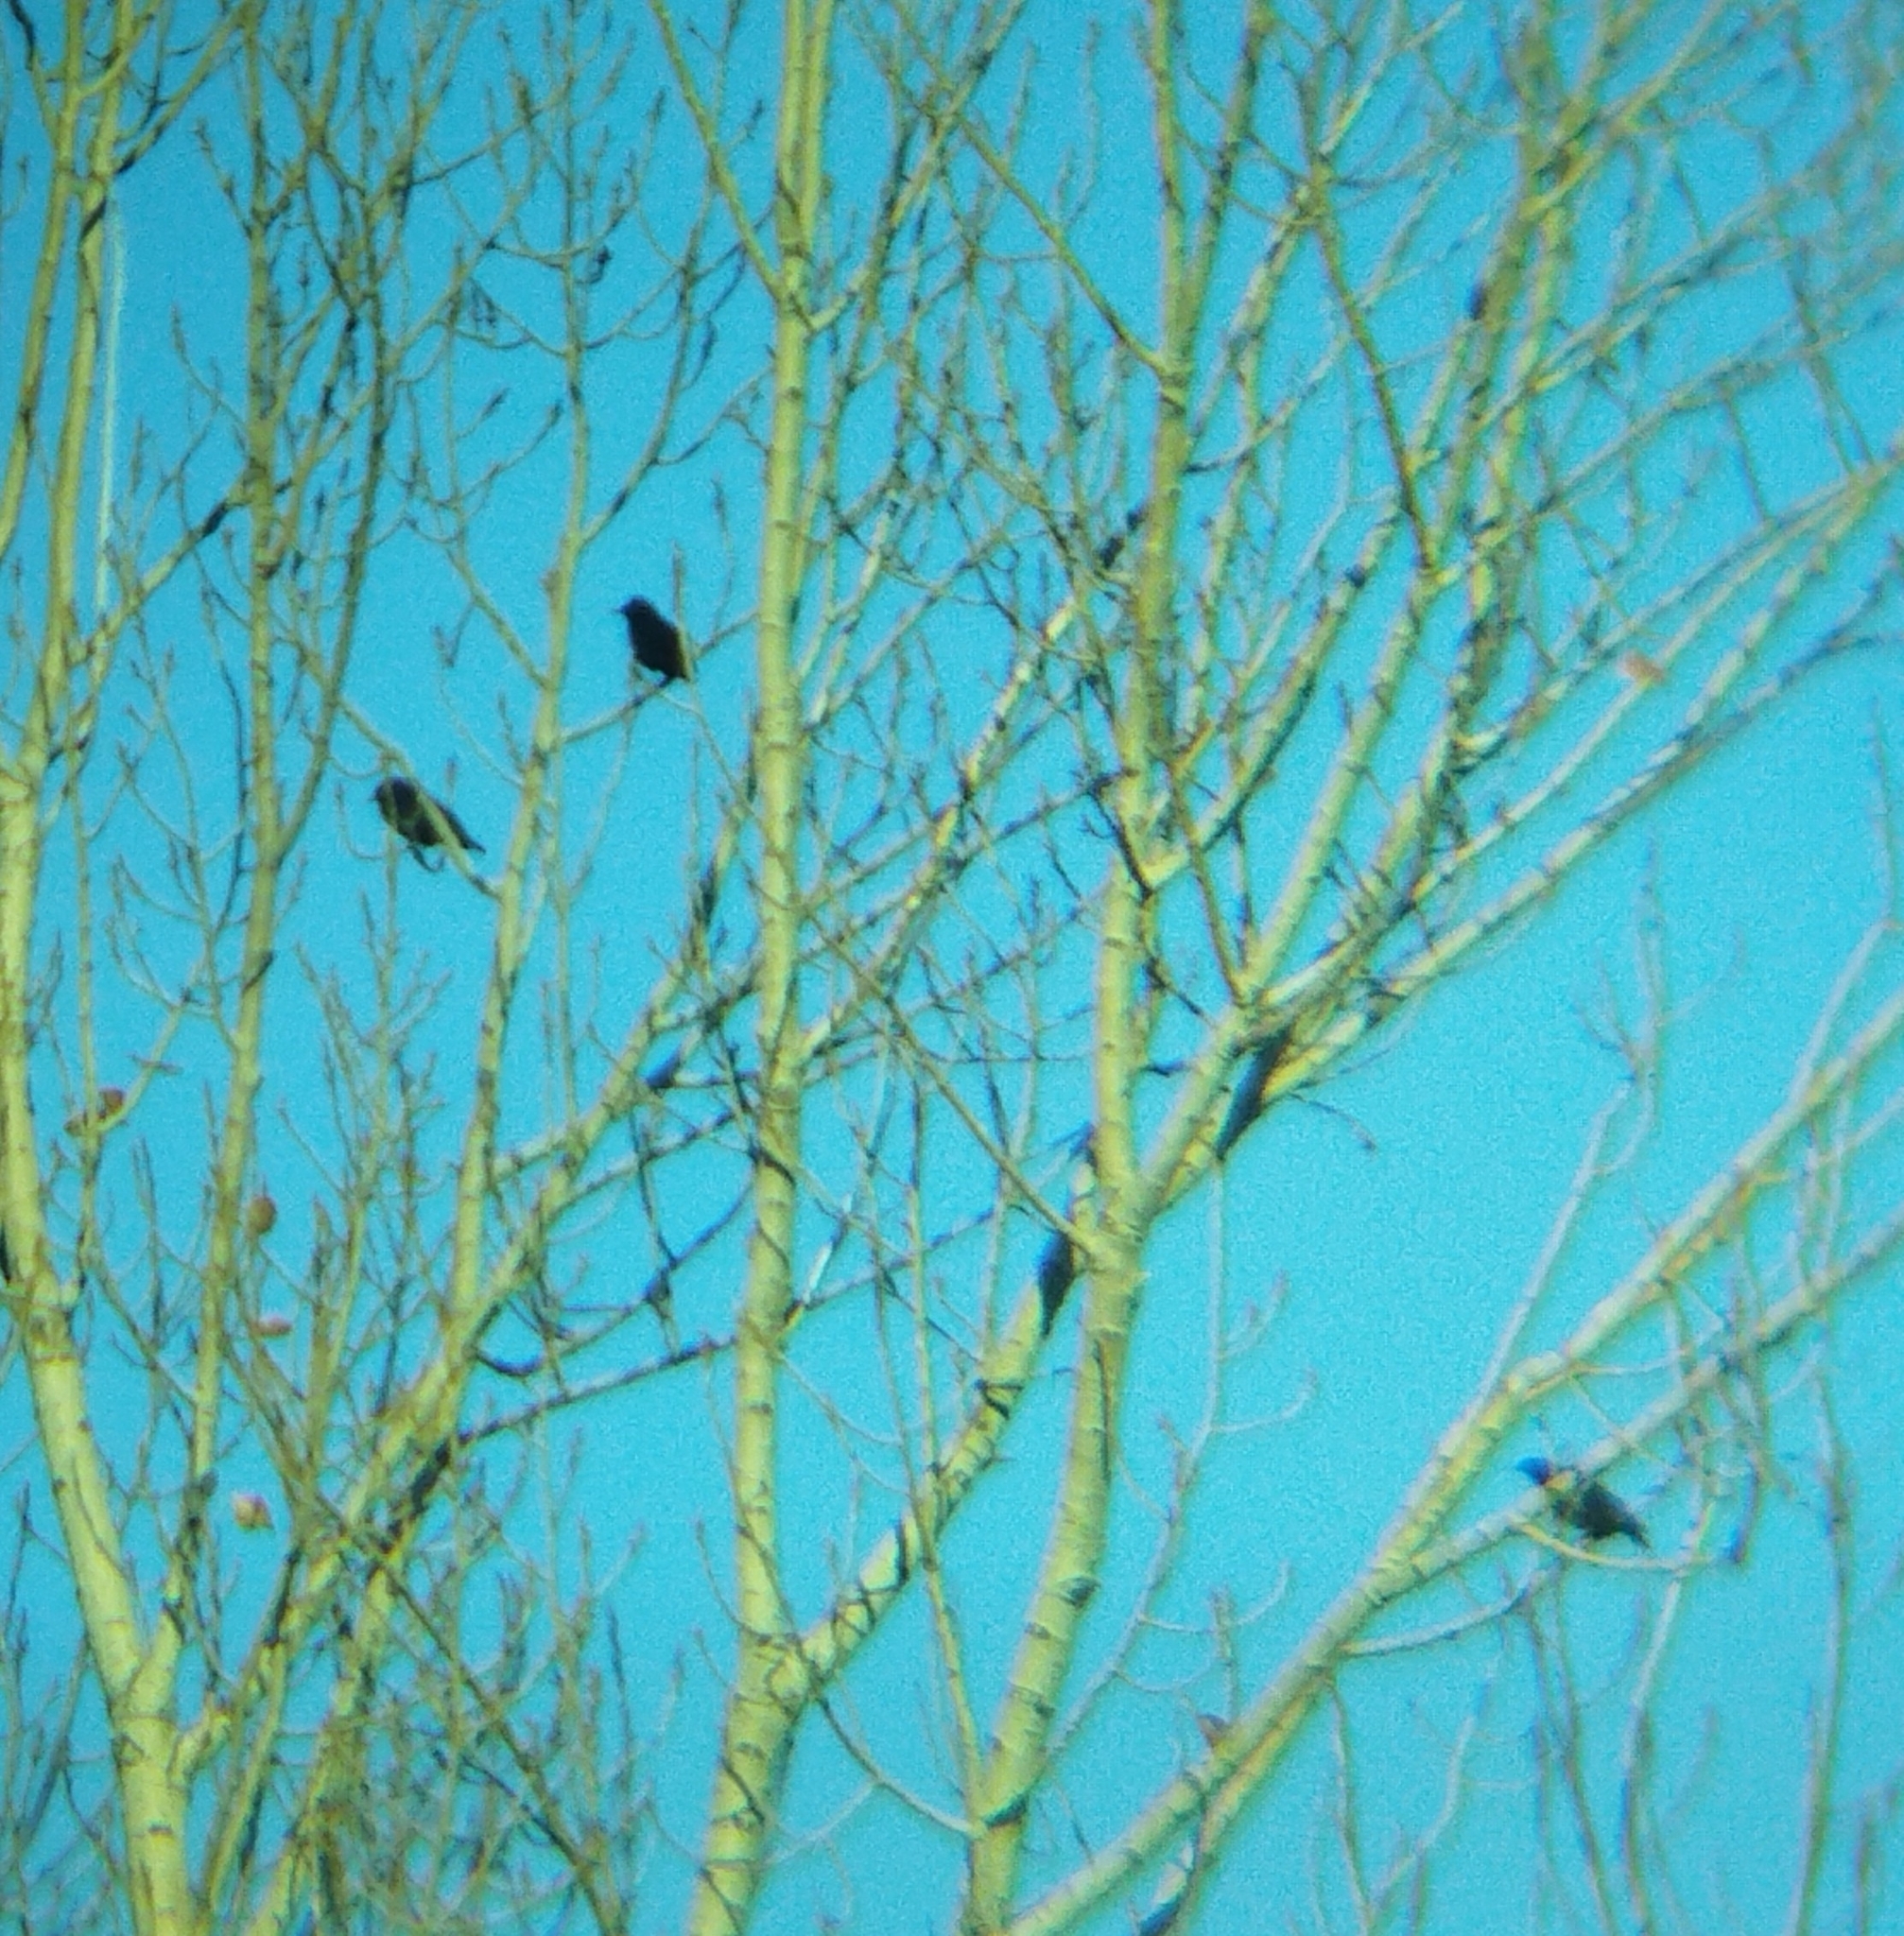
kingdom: Animalia
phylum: Chordata
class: Aves
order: Passeriformes
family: Sturnidae
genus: Sturnus
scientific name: Sturnus unicolor
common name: Spotless starling
